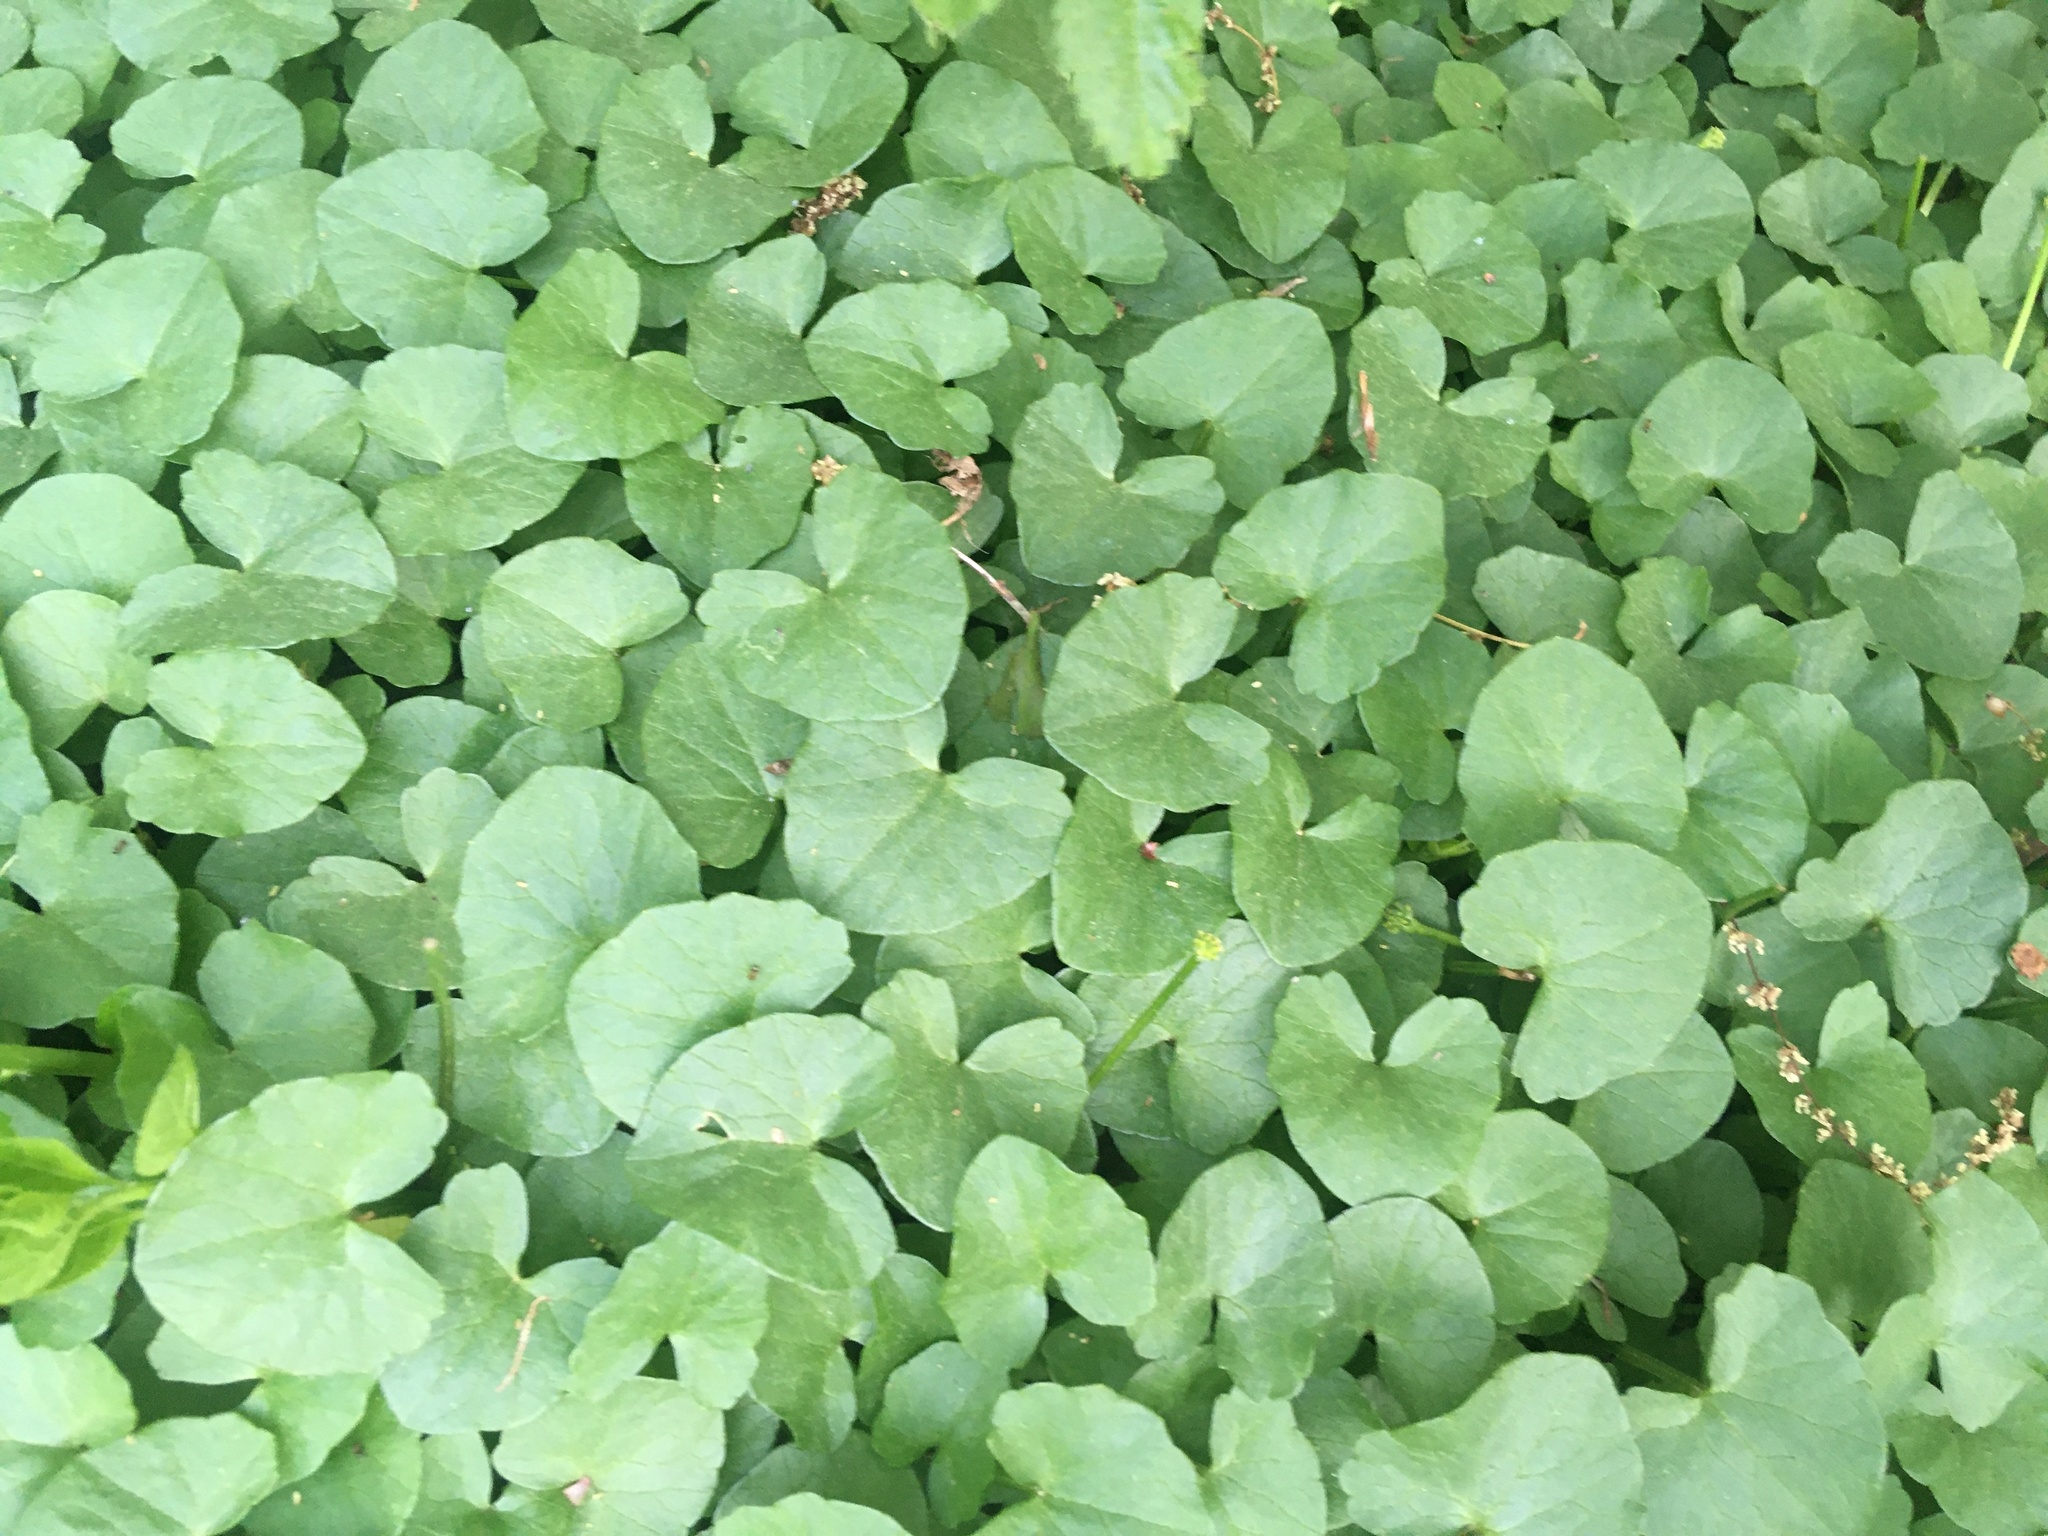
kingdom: Plantae
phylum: Tracheophyta
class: Magnoliopsida
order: Ranunculales
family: Ranunculaceae
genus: Ficaria
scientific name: Ficaria verna
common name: Lesser celandine
